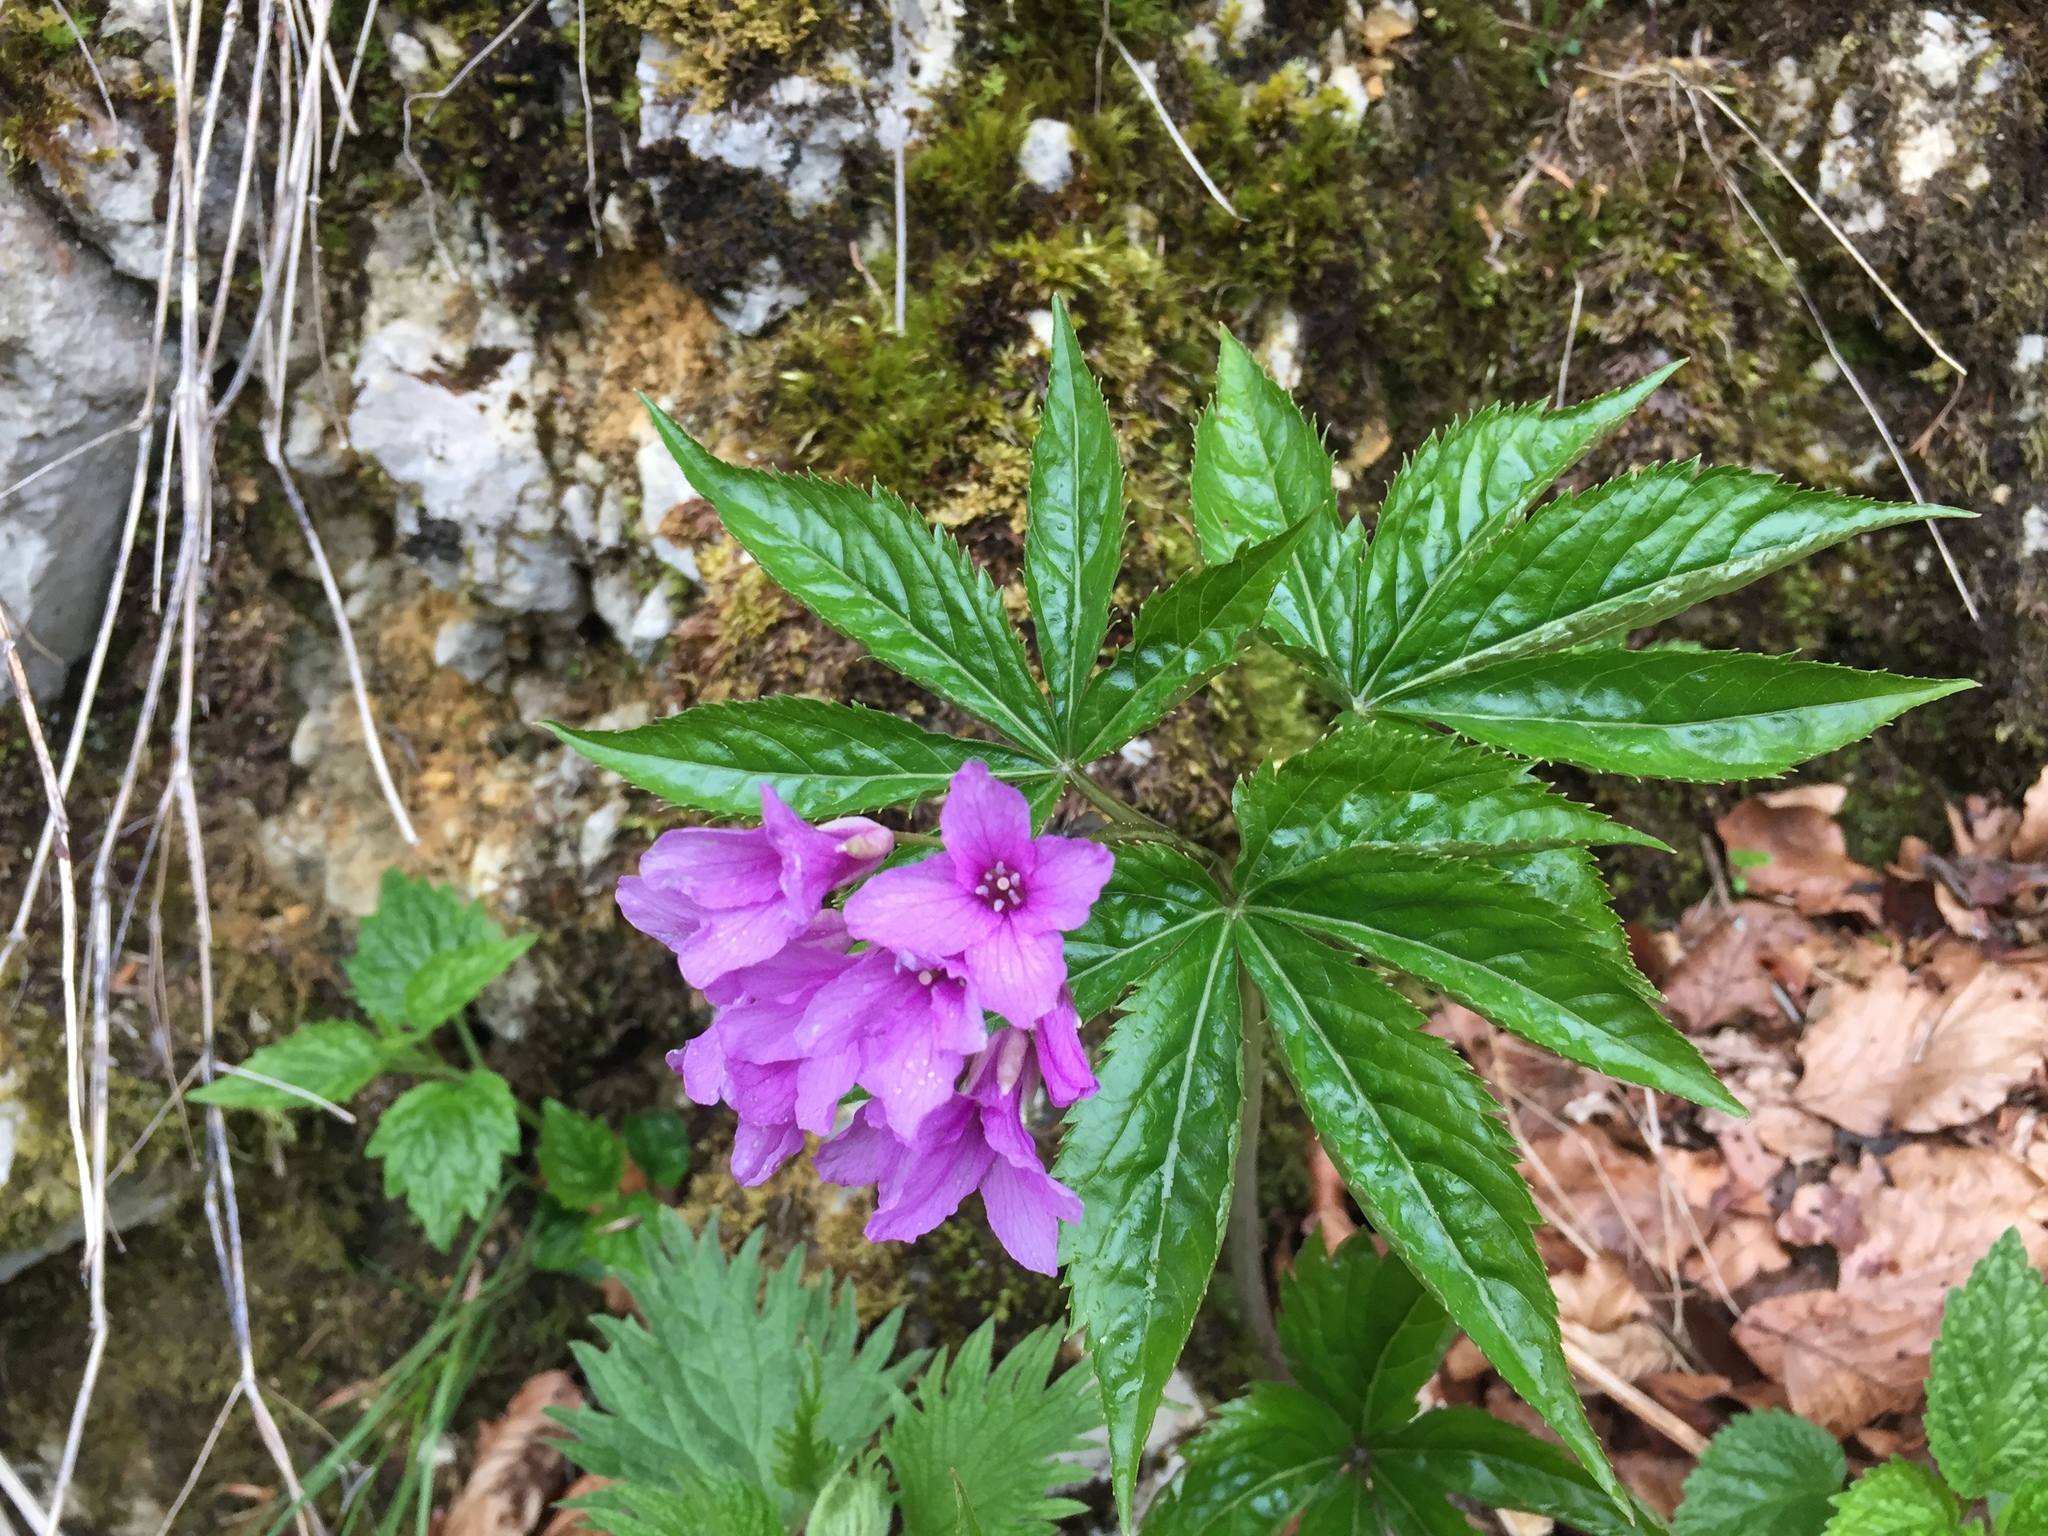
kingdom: Plantae
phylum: Tracheophyta
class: Magnoliopsida
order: Brassicales
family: Brassicaceae
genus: Cardamine
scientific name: Cardamine pentaphyllos
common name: Five-leaflet bitter-cress
